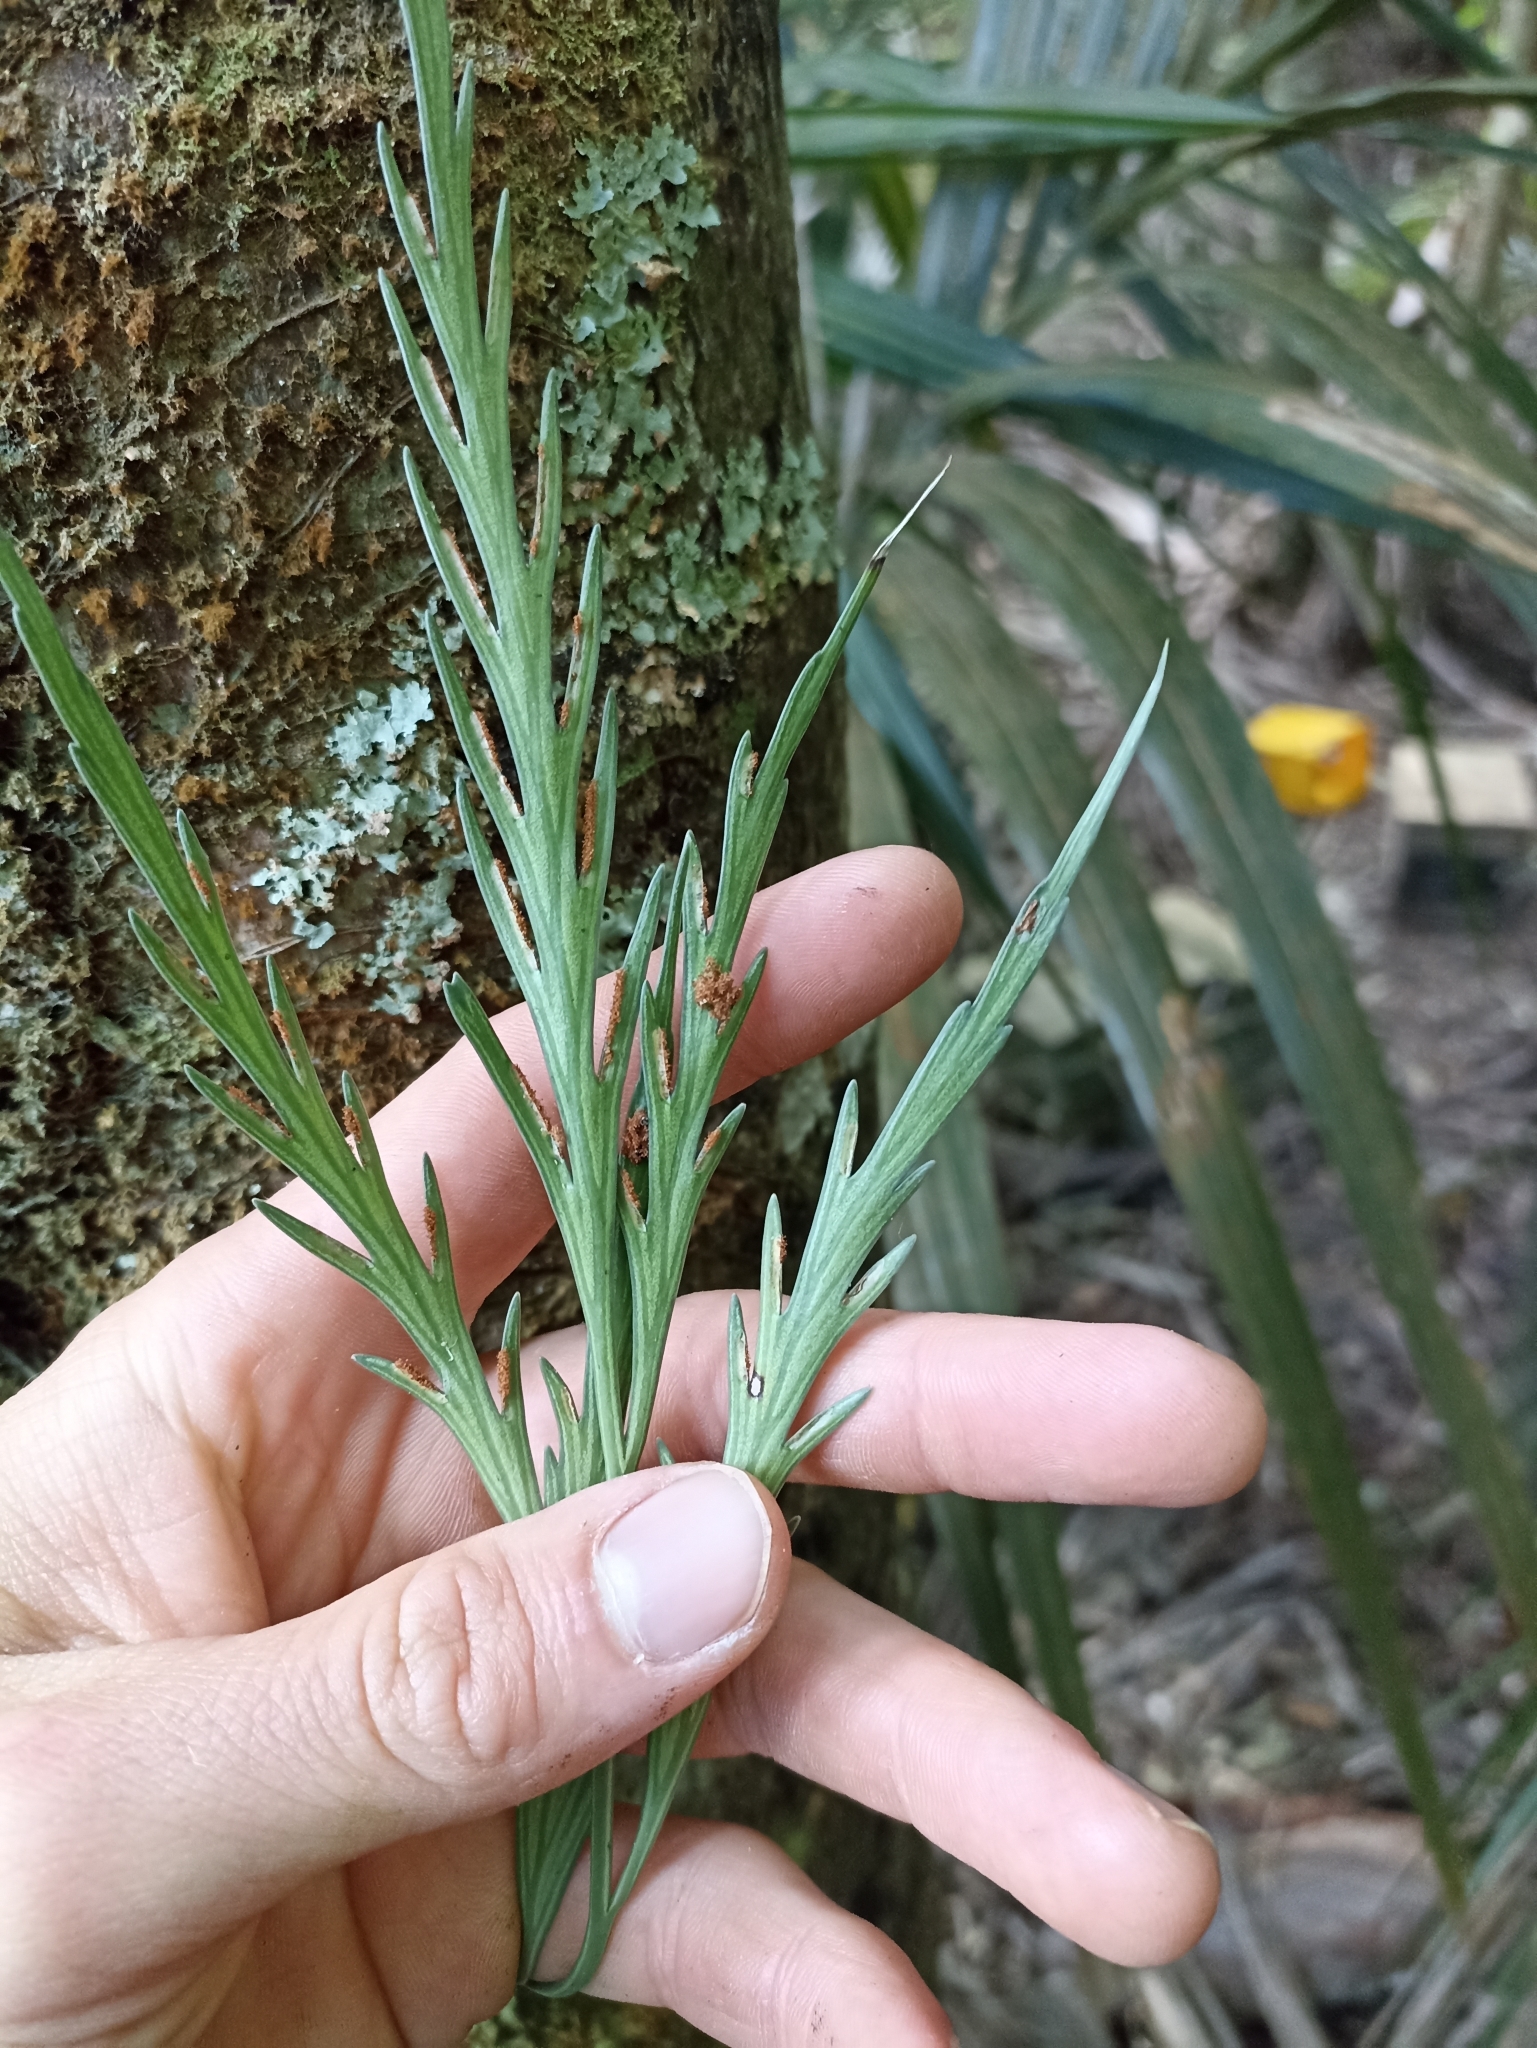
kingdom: Plantae
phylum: Tracheophyta
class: Polypodiopsida
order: Polypodiales
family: Aspleniaceae
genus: Asplenium
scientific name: Asplenium flaccidum
